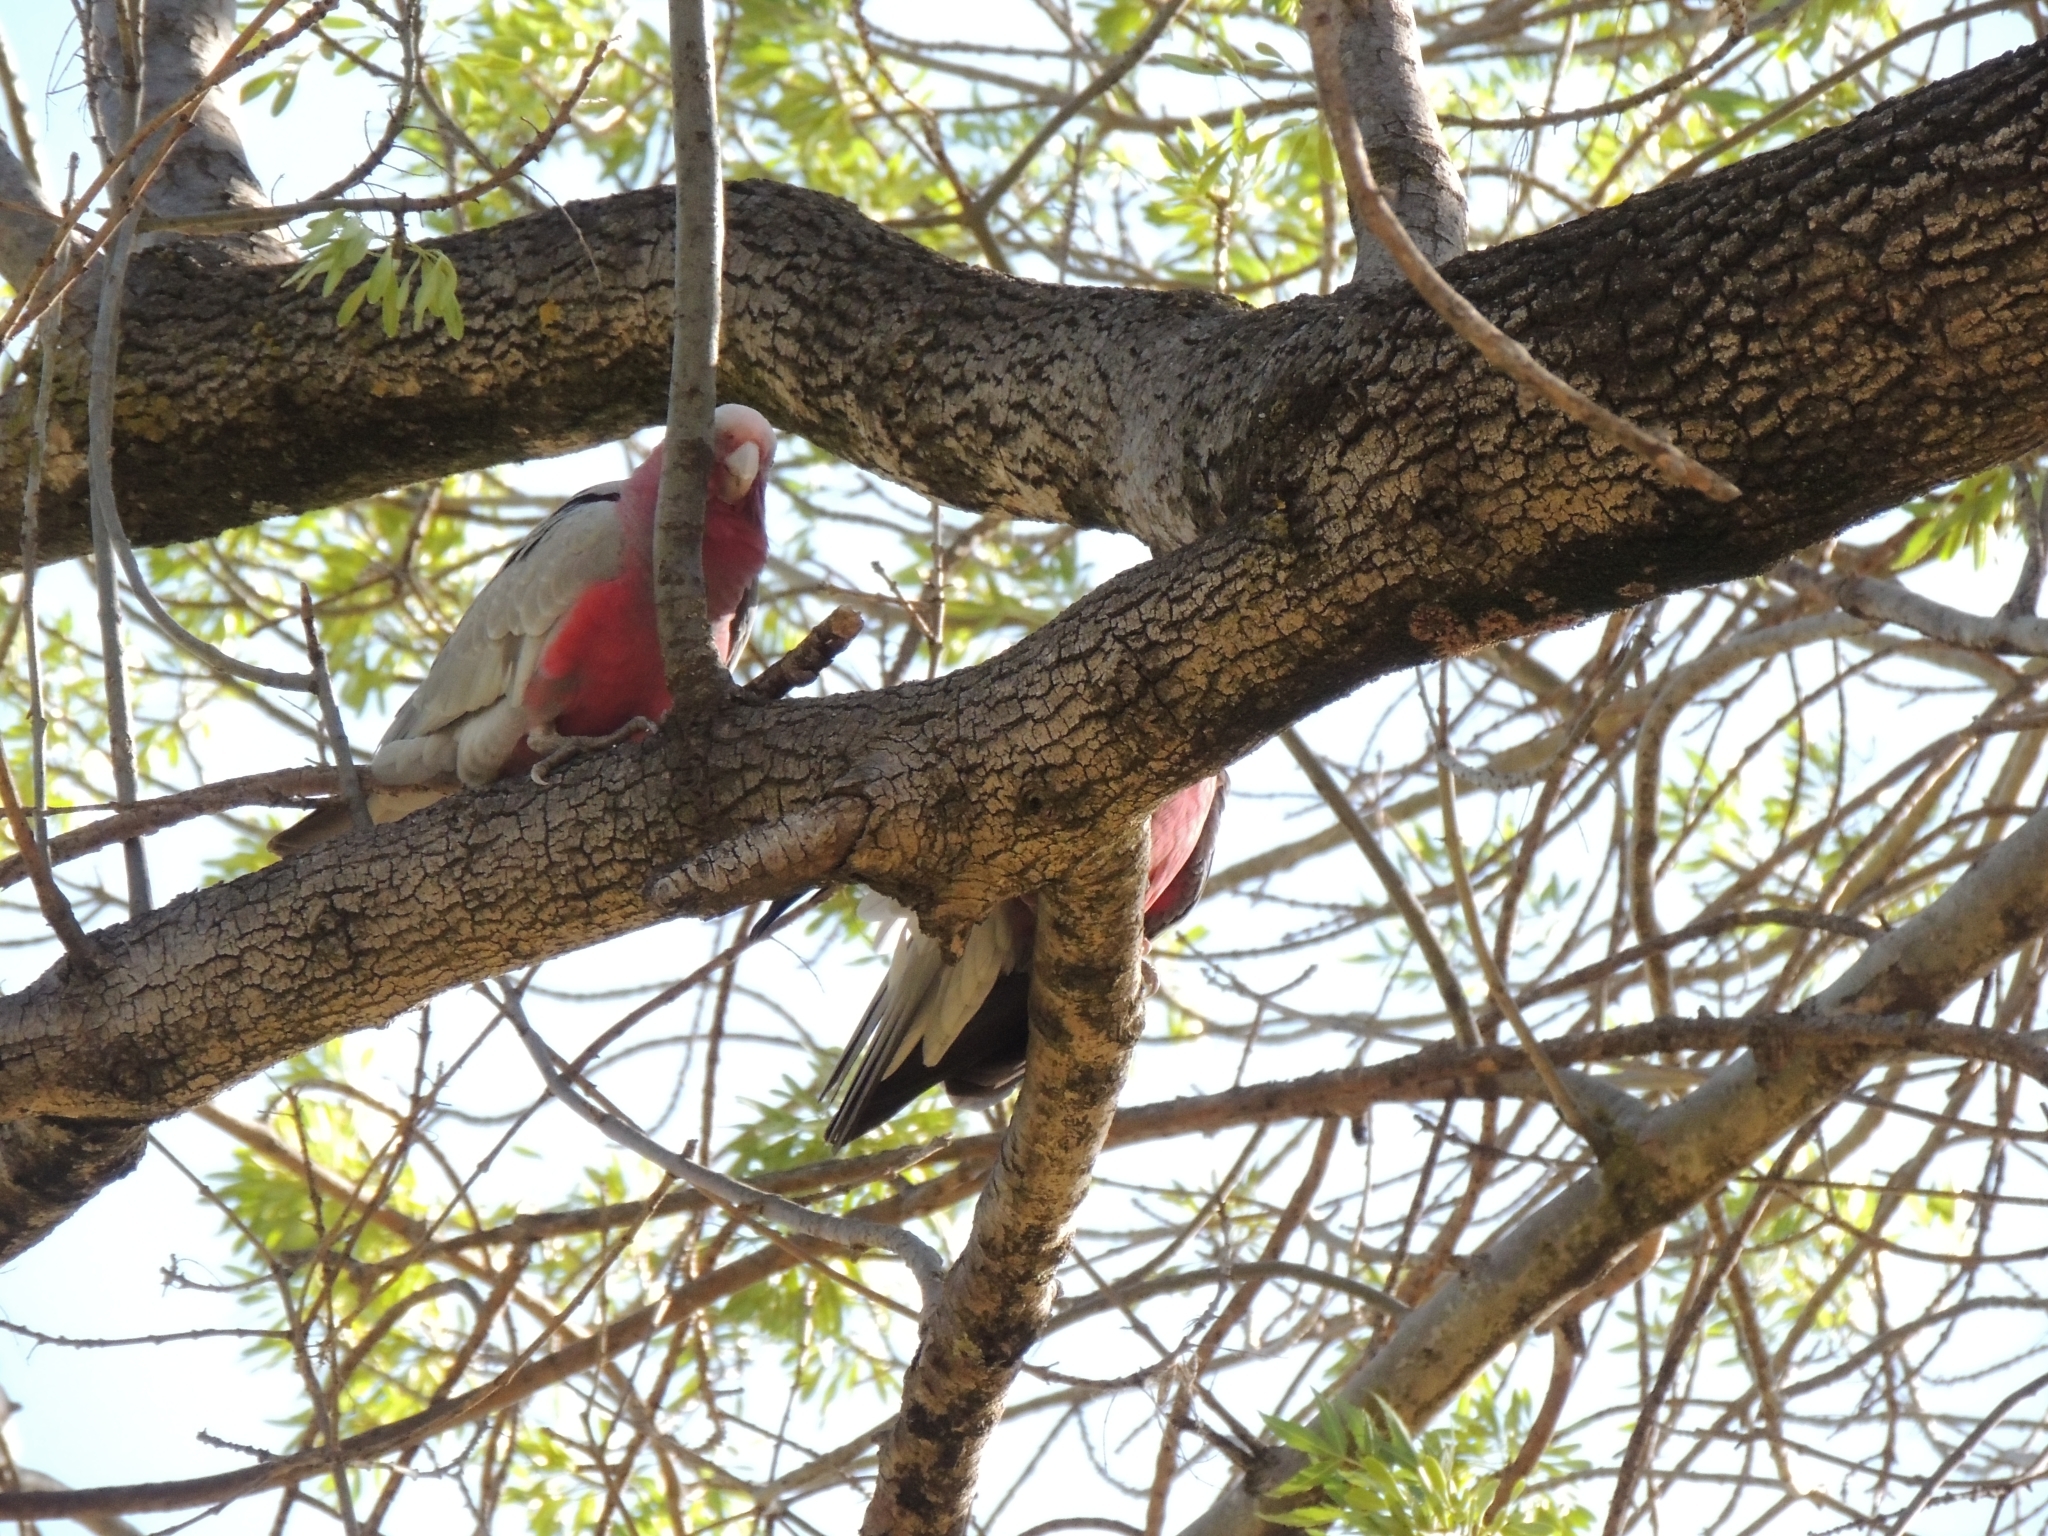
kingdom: Animalia
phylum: Chordata
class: Aves
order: Psittaciformes
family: Psittacidae
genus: Eolophus
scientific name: Eolophus roseicapilla
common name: Galah
